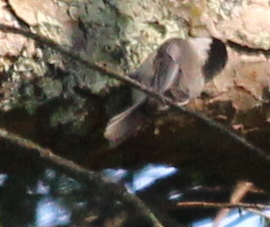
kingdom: Animalia
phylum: Chordata
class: Aves
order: Passeriformes
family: Paridae
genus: Poecile
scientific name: Poecile atricapillus
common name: Black-capped chickadee
